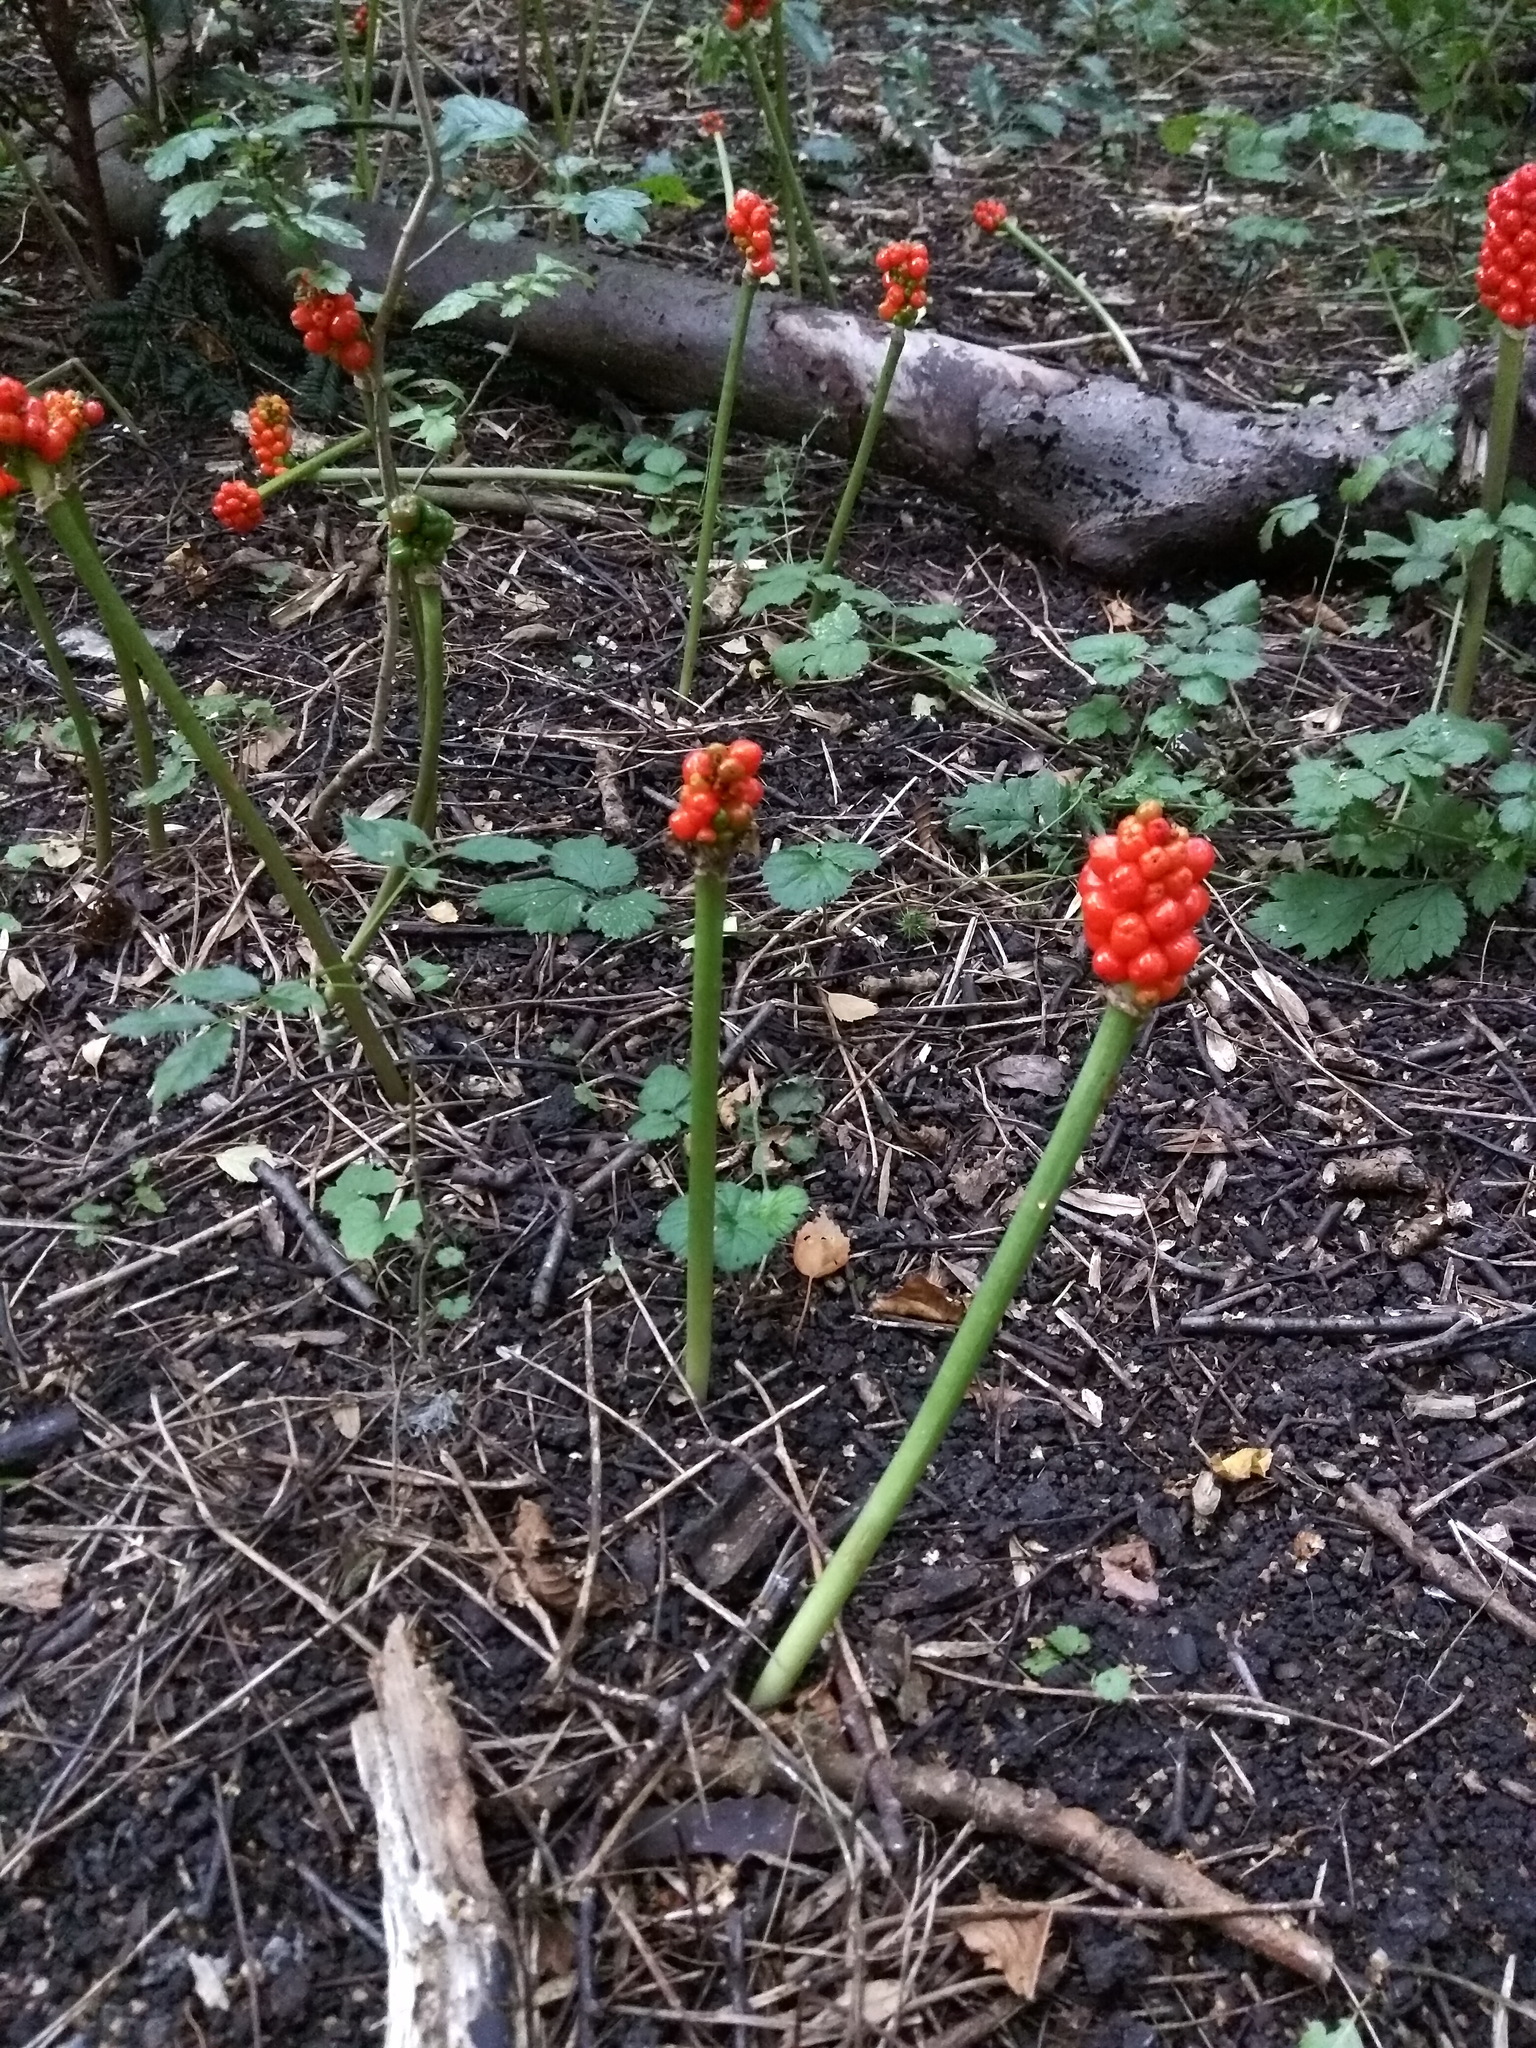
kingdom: Plantae
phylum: Tracheophyta
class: Liliopsida
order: Alismatales
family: Araceae
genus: Arum
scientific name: Arum maculatum
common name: Lords-and-ladies
